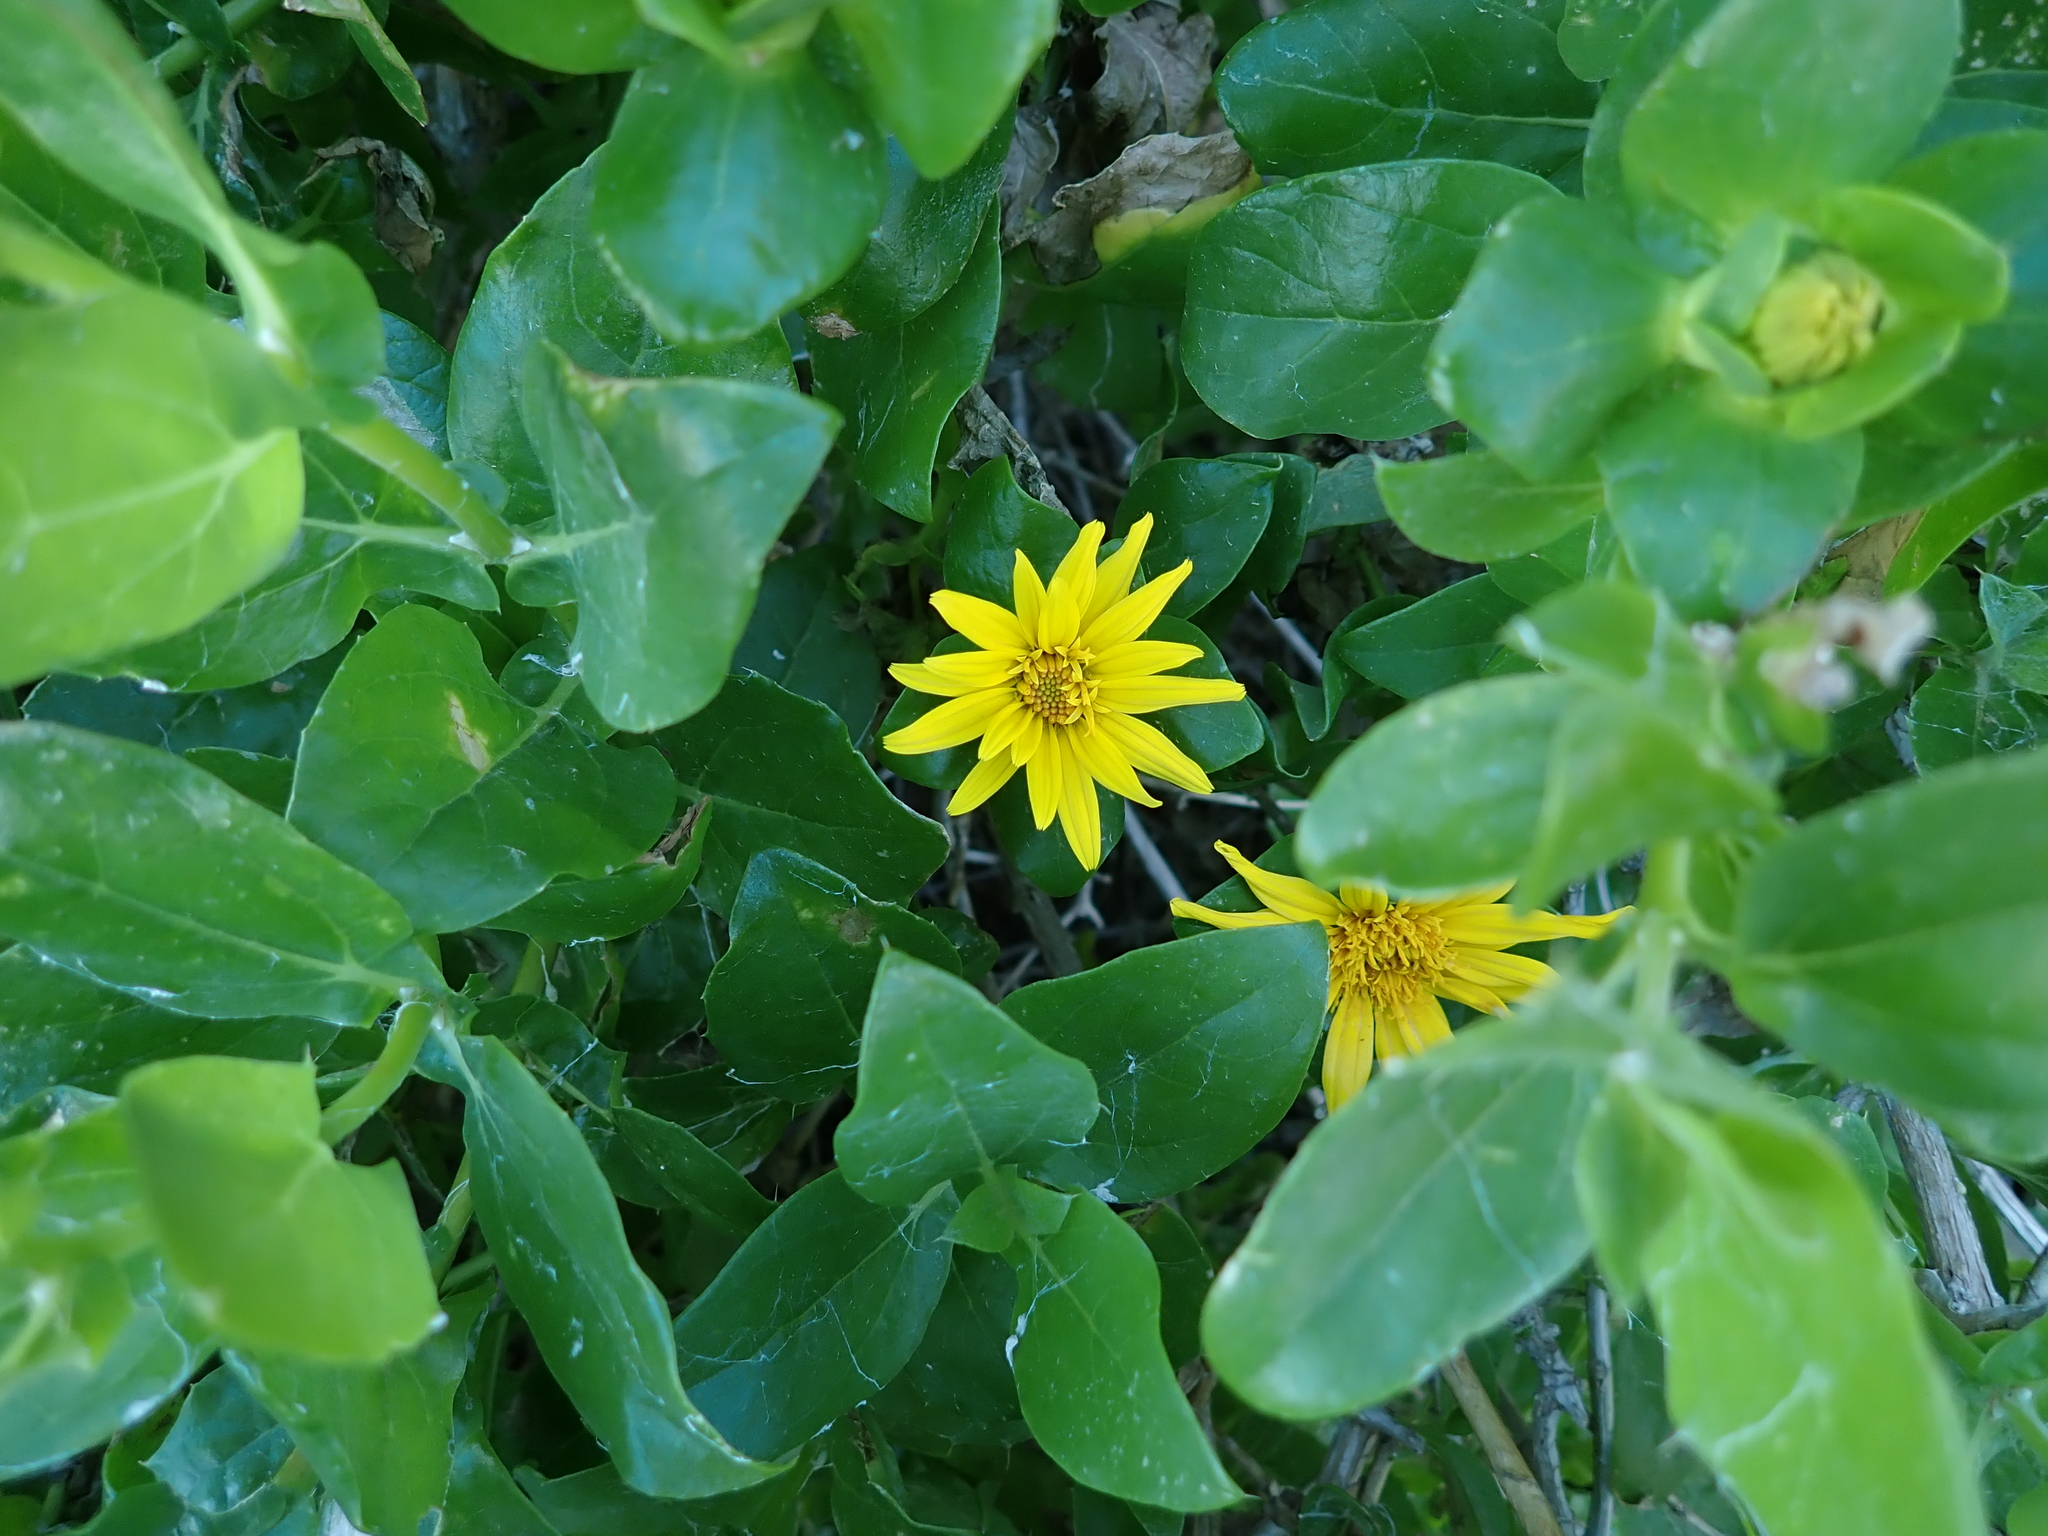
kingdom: Plantae
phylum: Tracheophyta
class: Magnoliopsida
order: Asterales
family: Asteraceae
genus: Didelta
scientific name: Didelta spinosa
